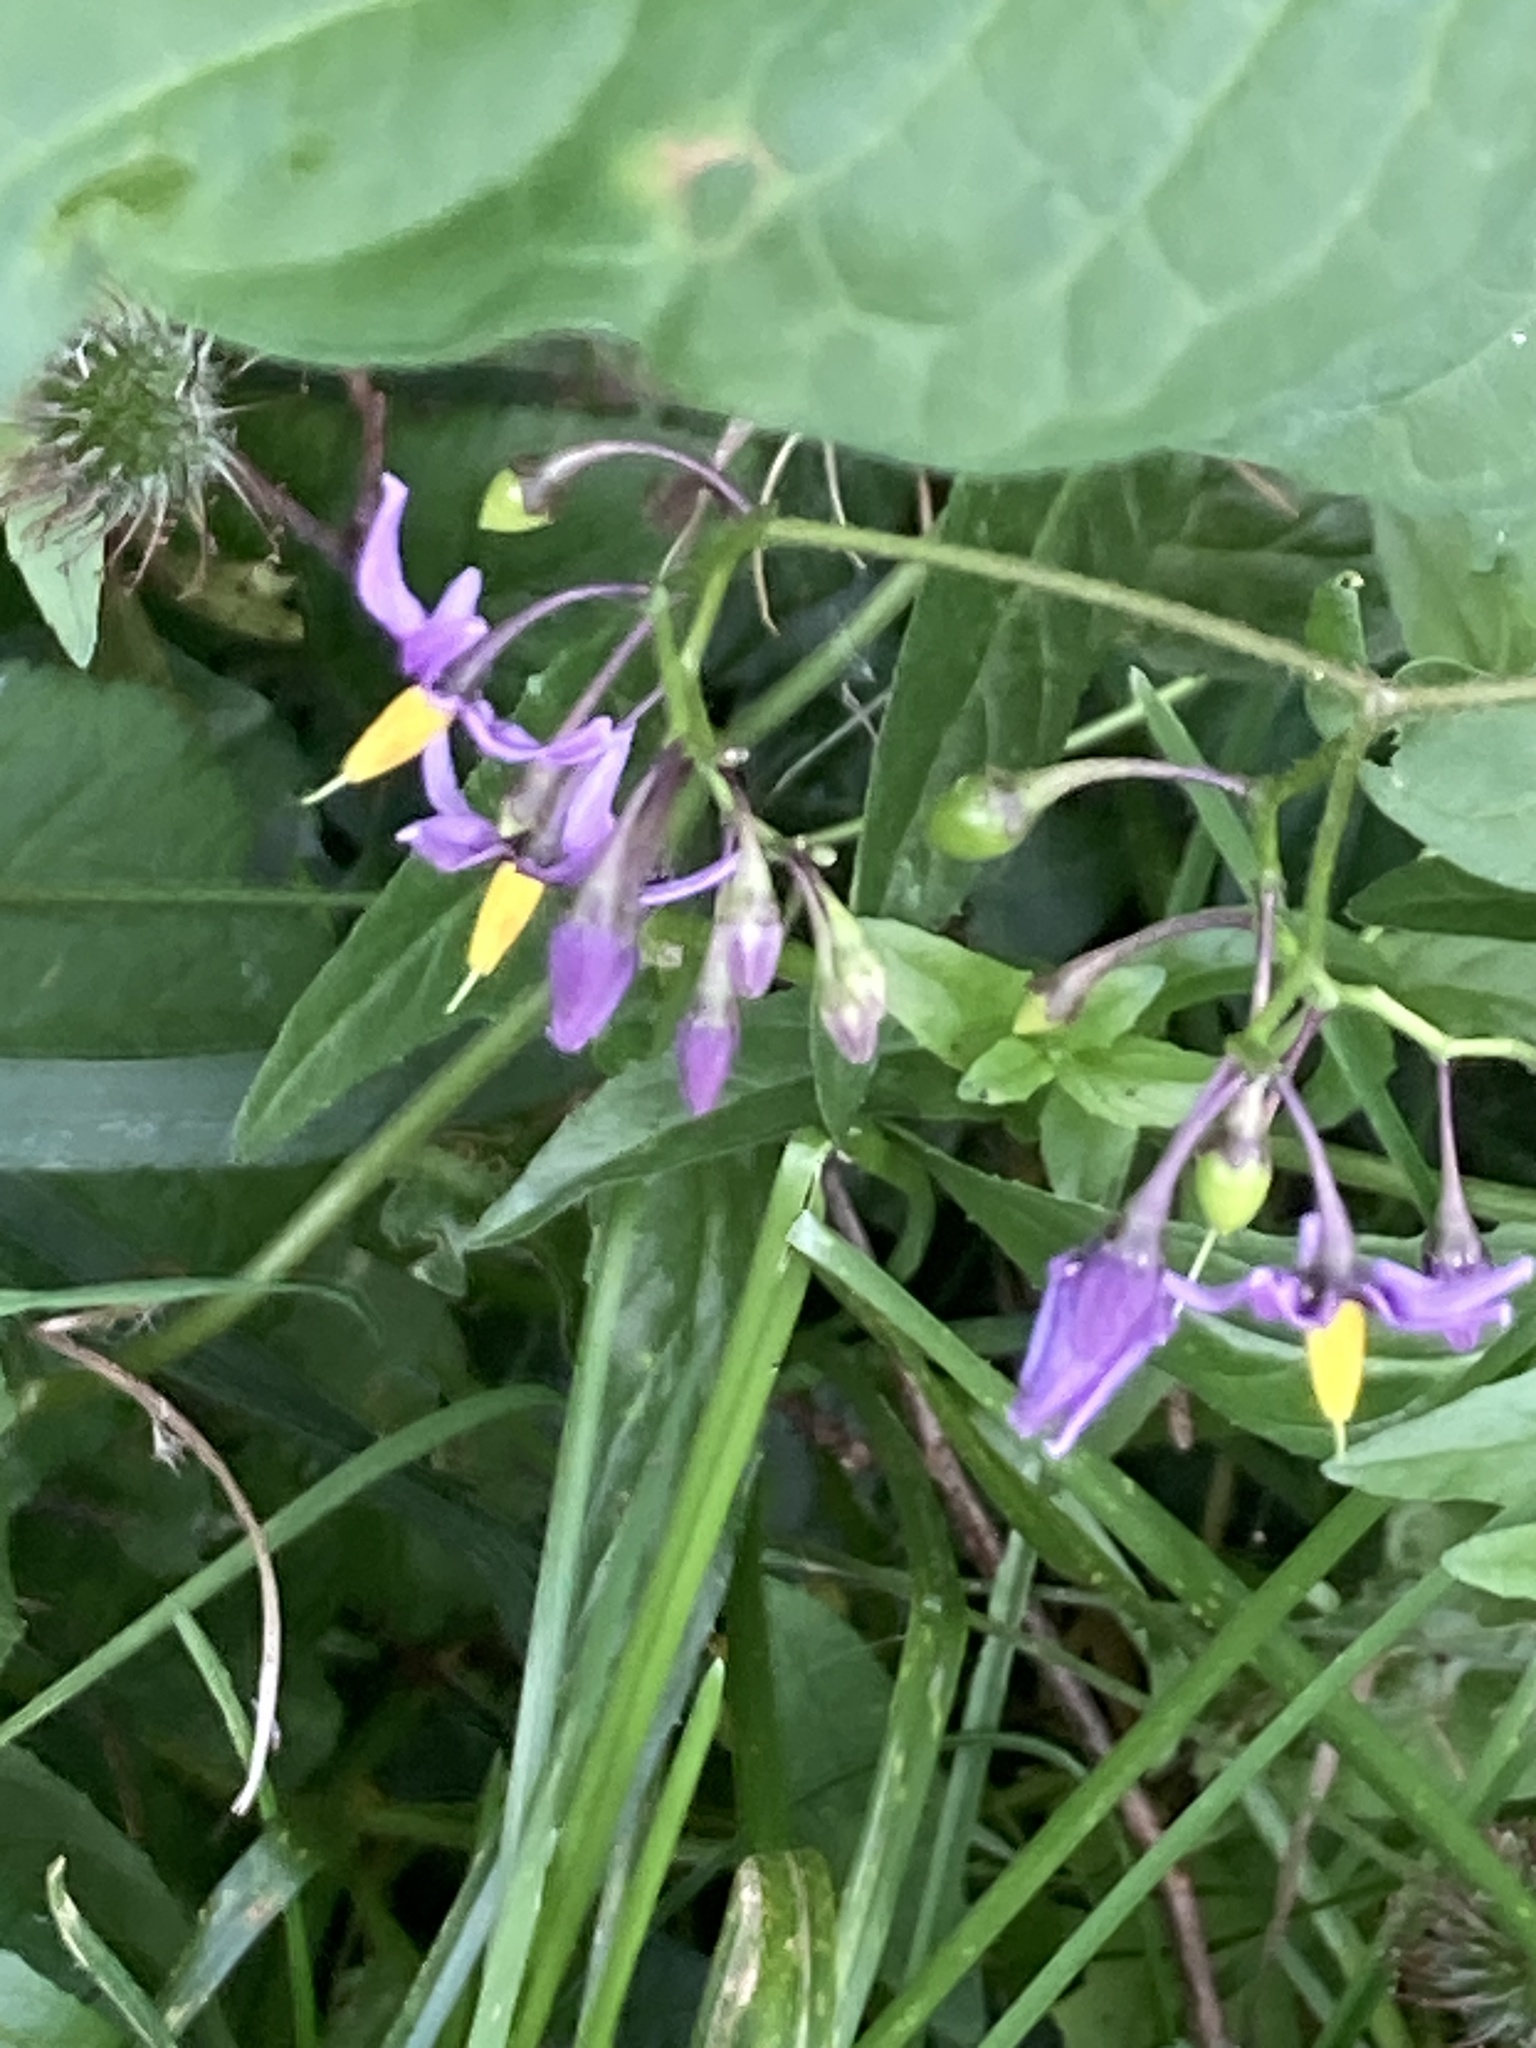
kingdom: Plantae
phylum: Tracheophyta
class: Magnoliopsida
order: Solanales
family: Solanaceae
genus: Solanum
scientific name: Solanum dulcamara
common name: Climbing nightshade
